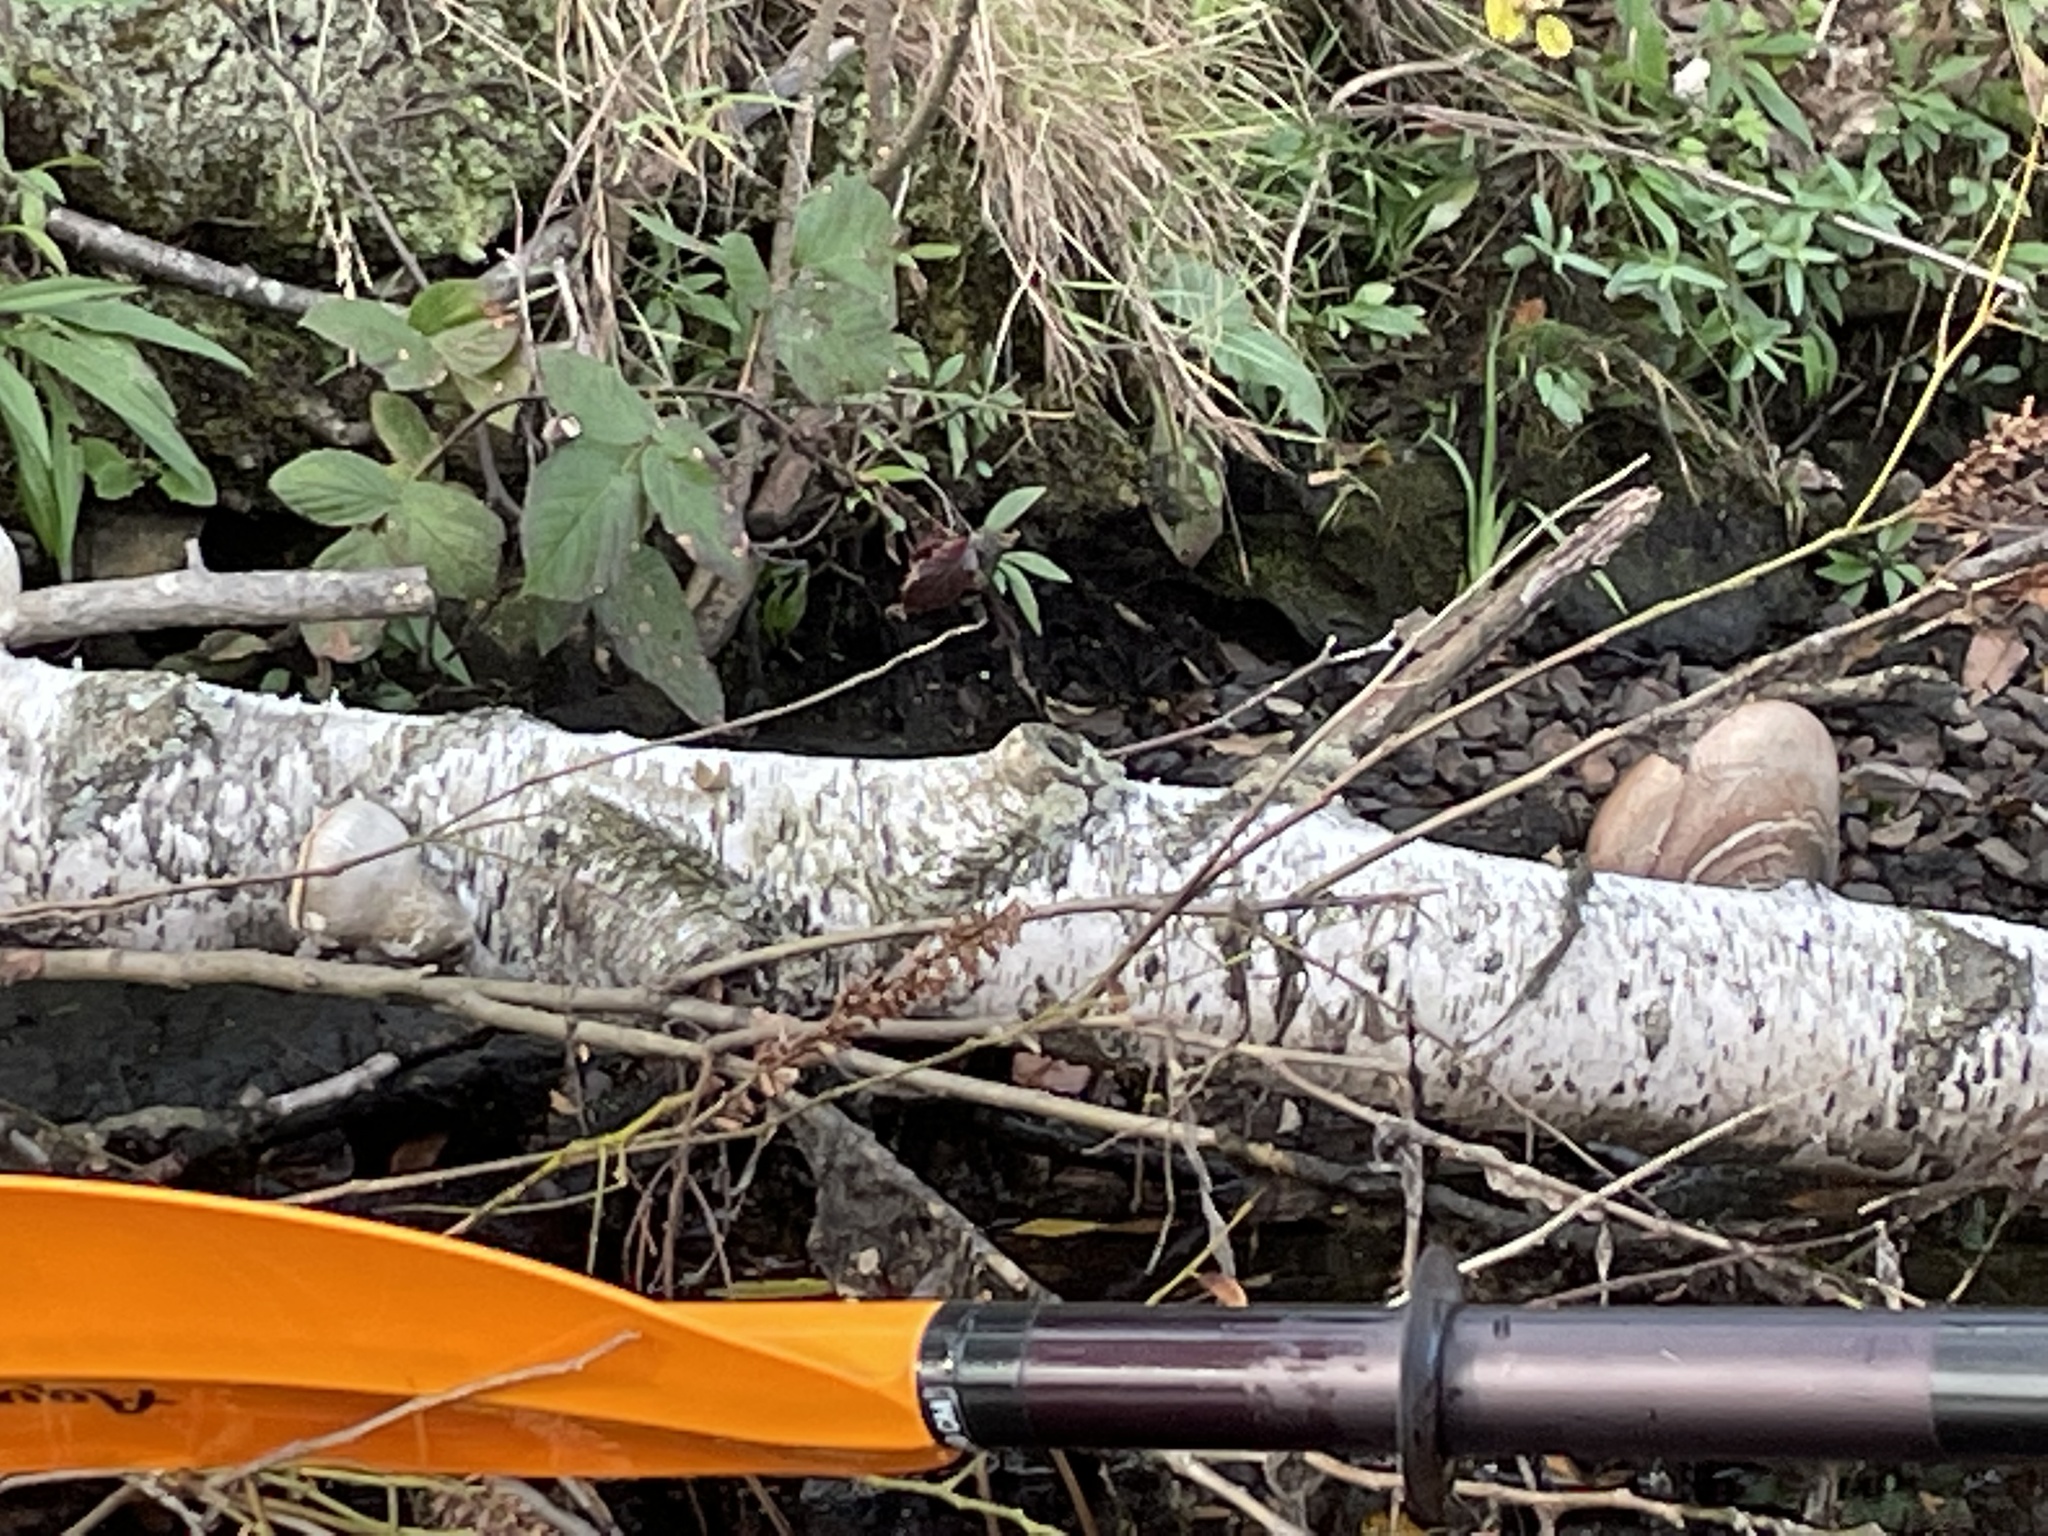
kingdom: Fungi
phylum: Basidiomycota
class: Agaricomycetes
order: Polyporales
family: Fomitopsidaceae
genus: Fomitopsis
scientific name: Fomitopsis betulina
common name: Birch polypore
